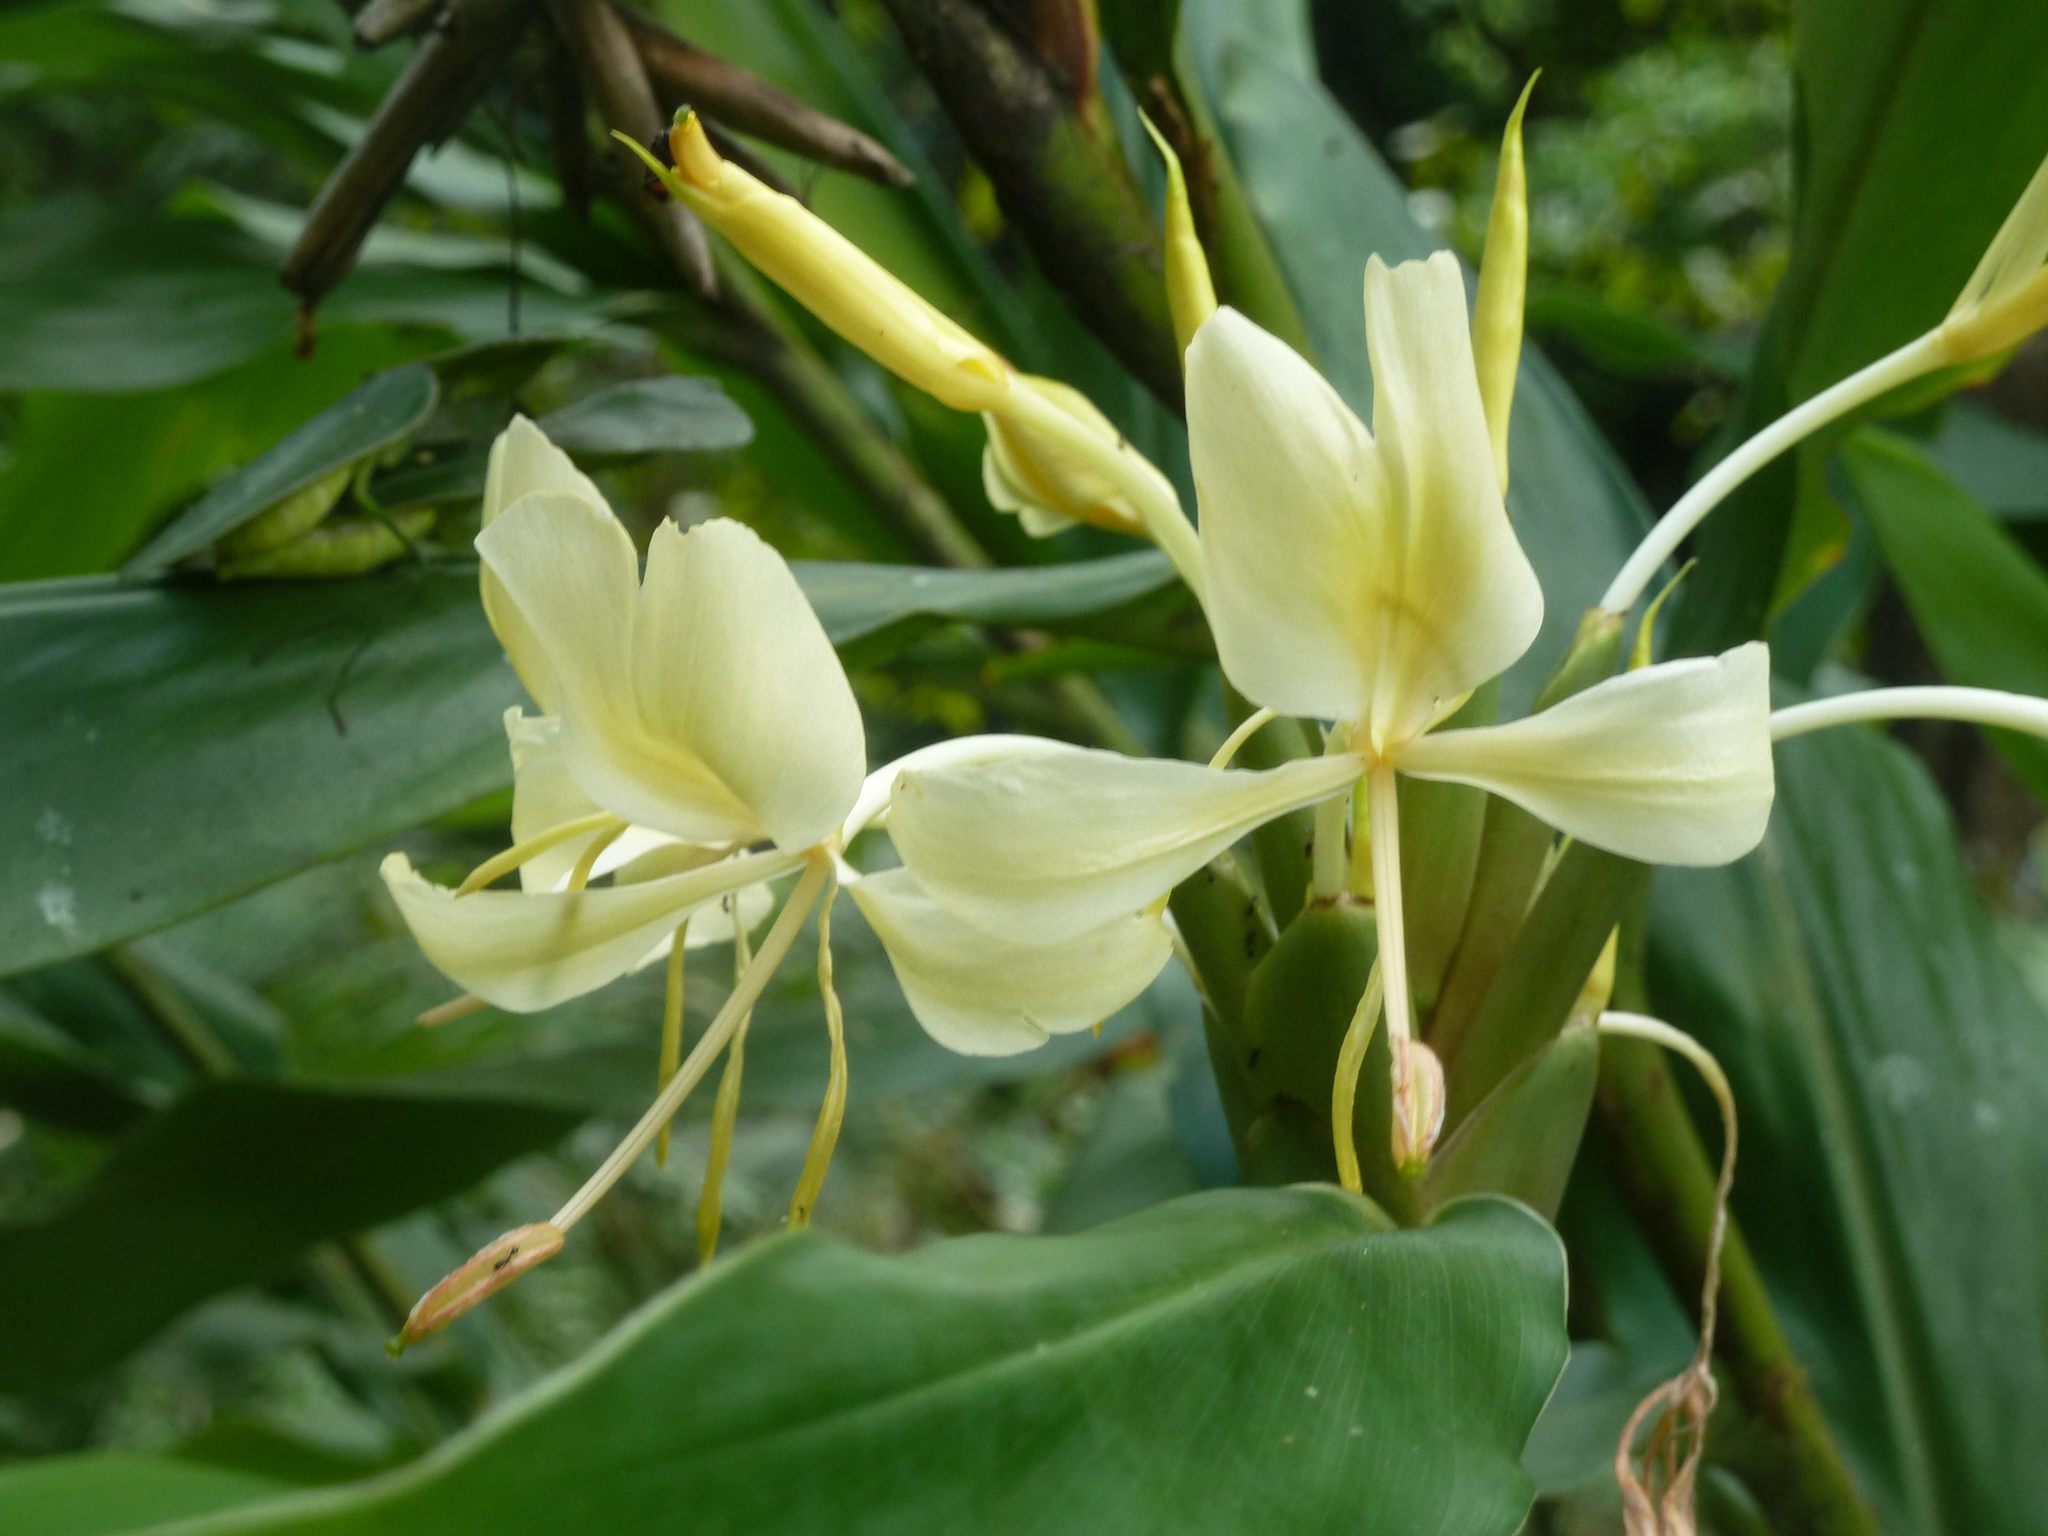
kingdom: Plantae
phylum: Tracheophyta
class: Liliopsida
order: Zingiberales
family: Zingiberaceae
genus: Hedychium
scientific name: Hedychium flavescens
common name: Yellow ginger
